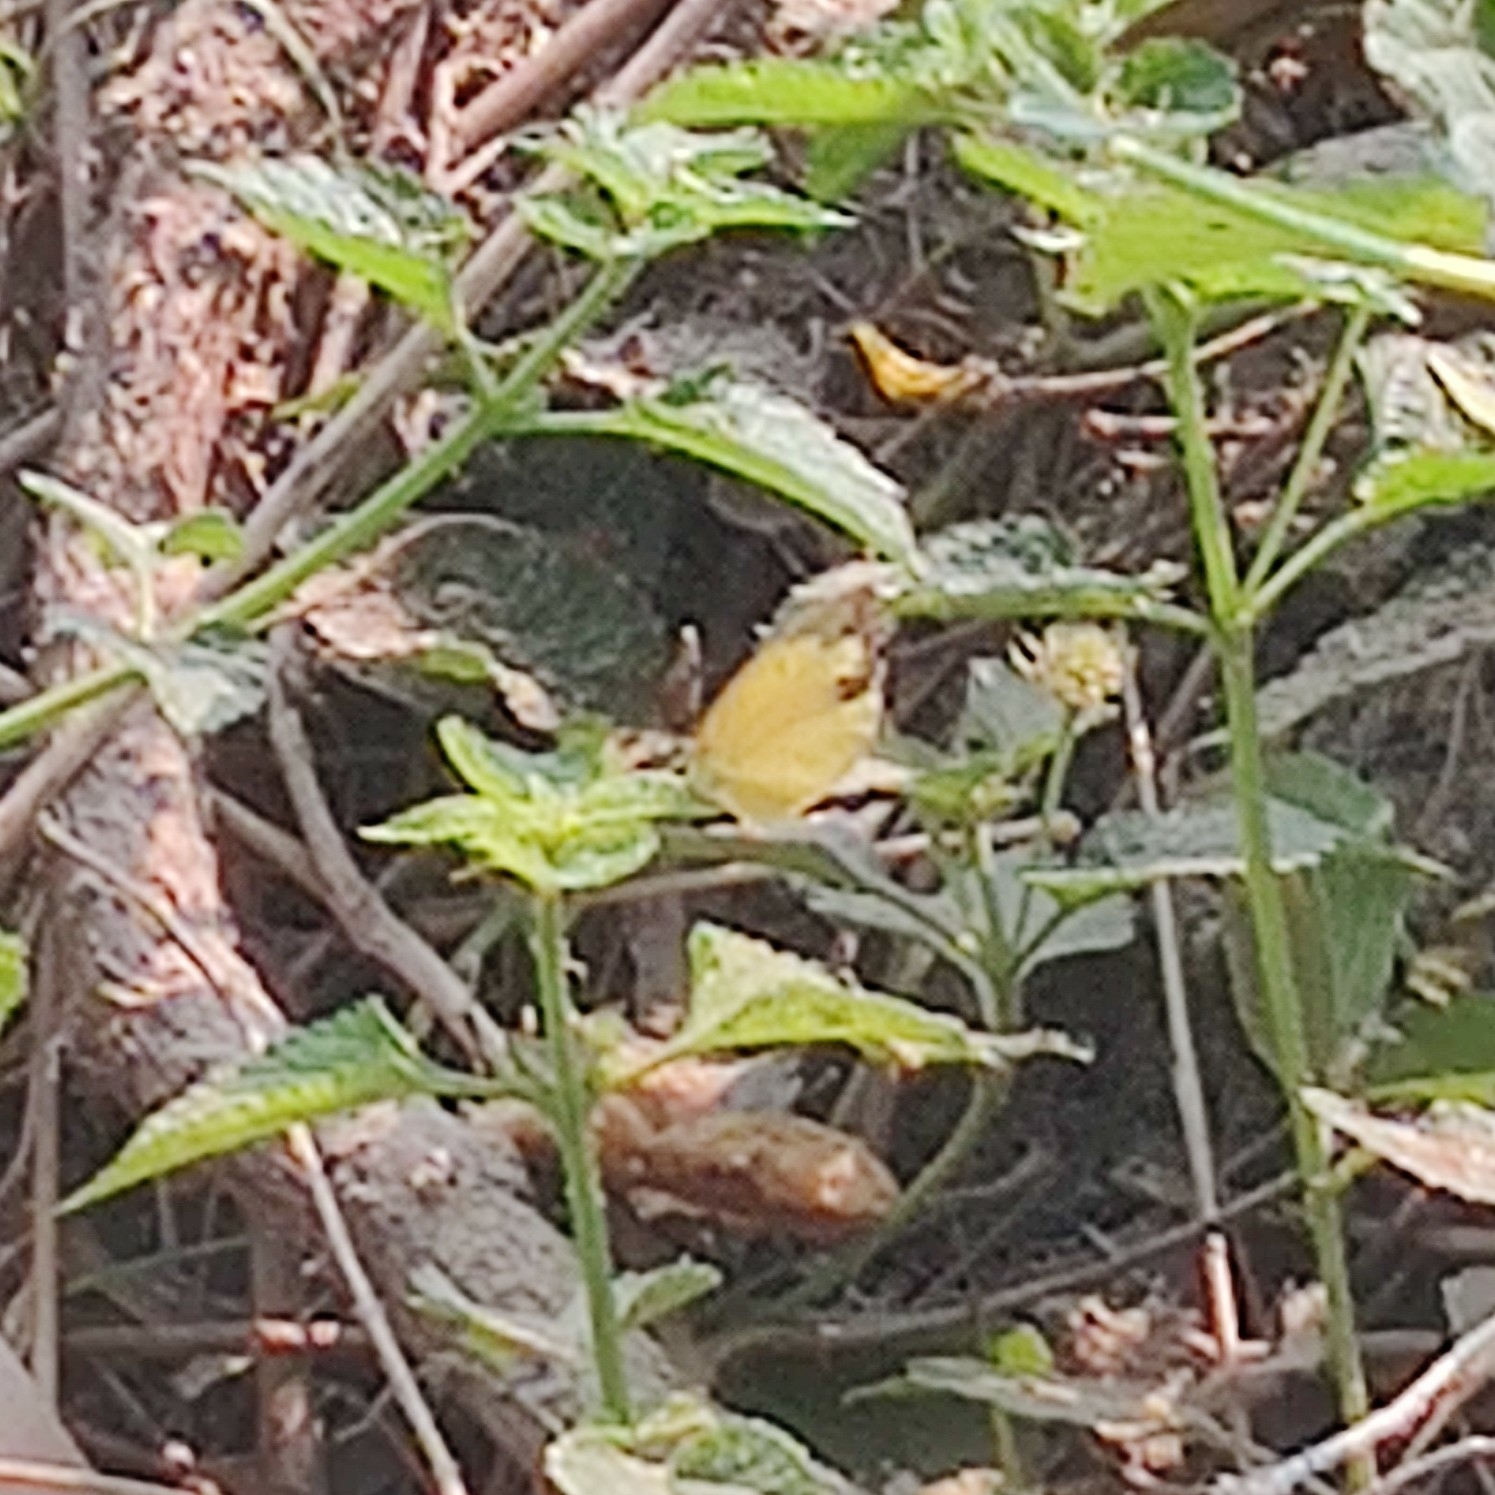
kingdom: Animalia
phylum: Arthropoda
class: Insecta
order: Lepidoptera
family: Pieridae
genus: Eurema
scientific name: Eurema hecabe
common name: Pale grass yellow
